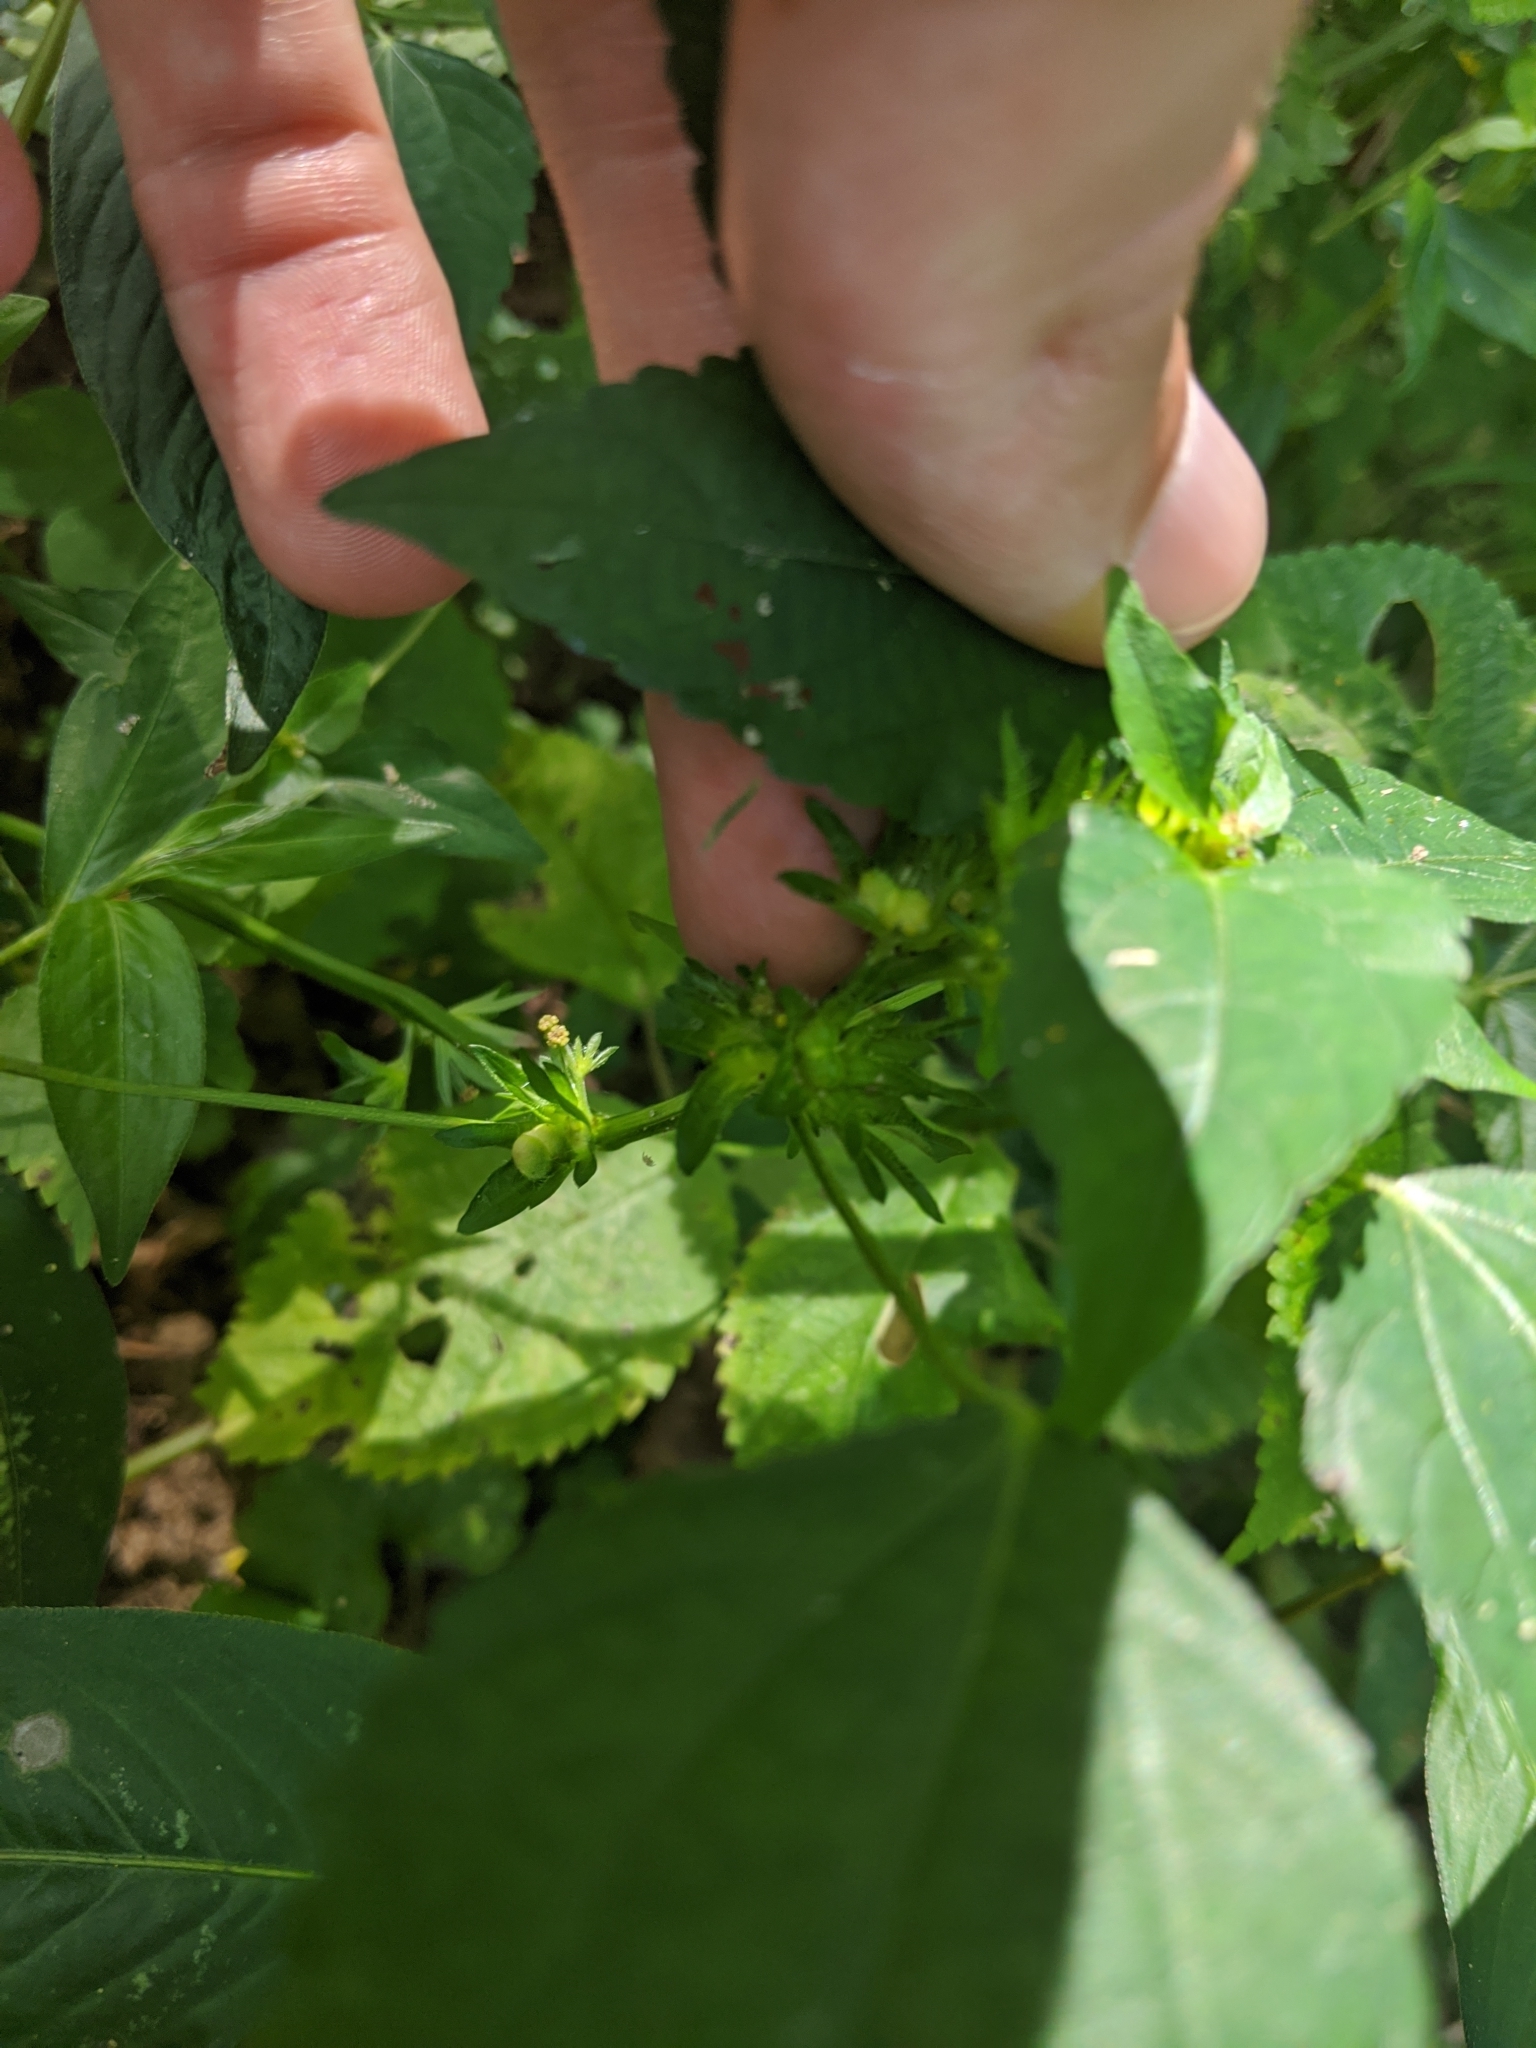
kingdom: Plantae
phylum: Tracheophyta
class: Magnoliopsida
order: Malpighiales
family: Euphorbiaceae
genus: Acalypha
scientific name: Acalypha deamii
